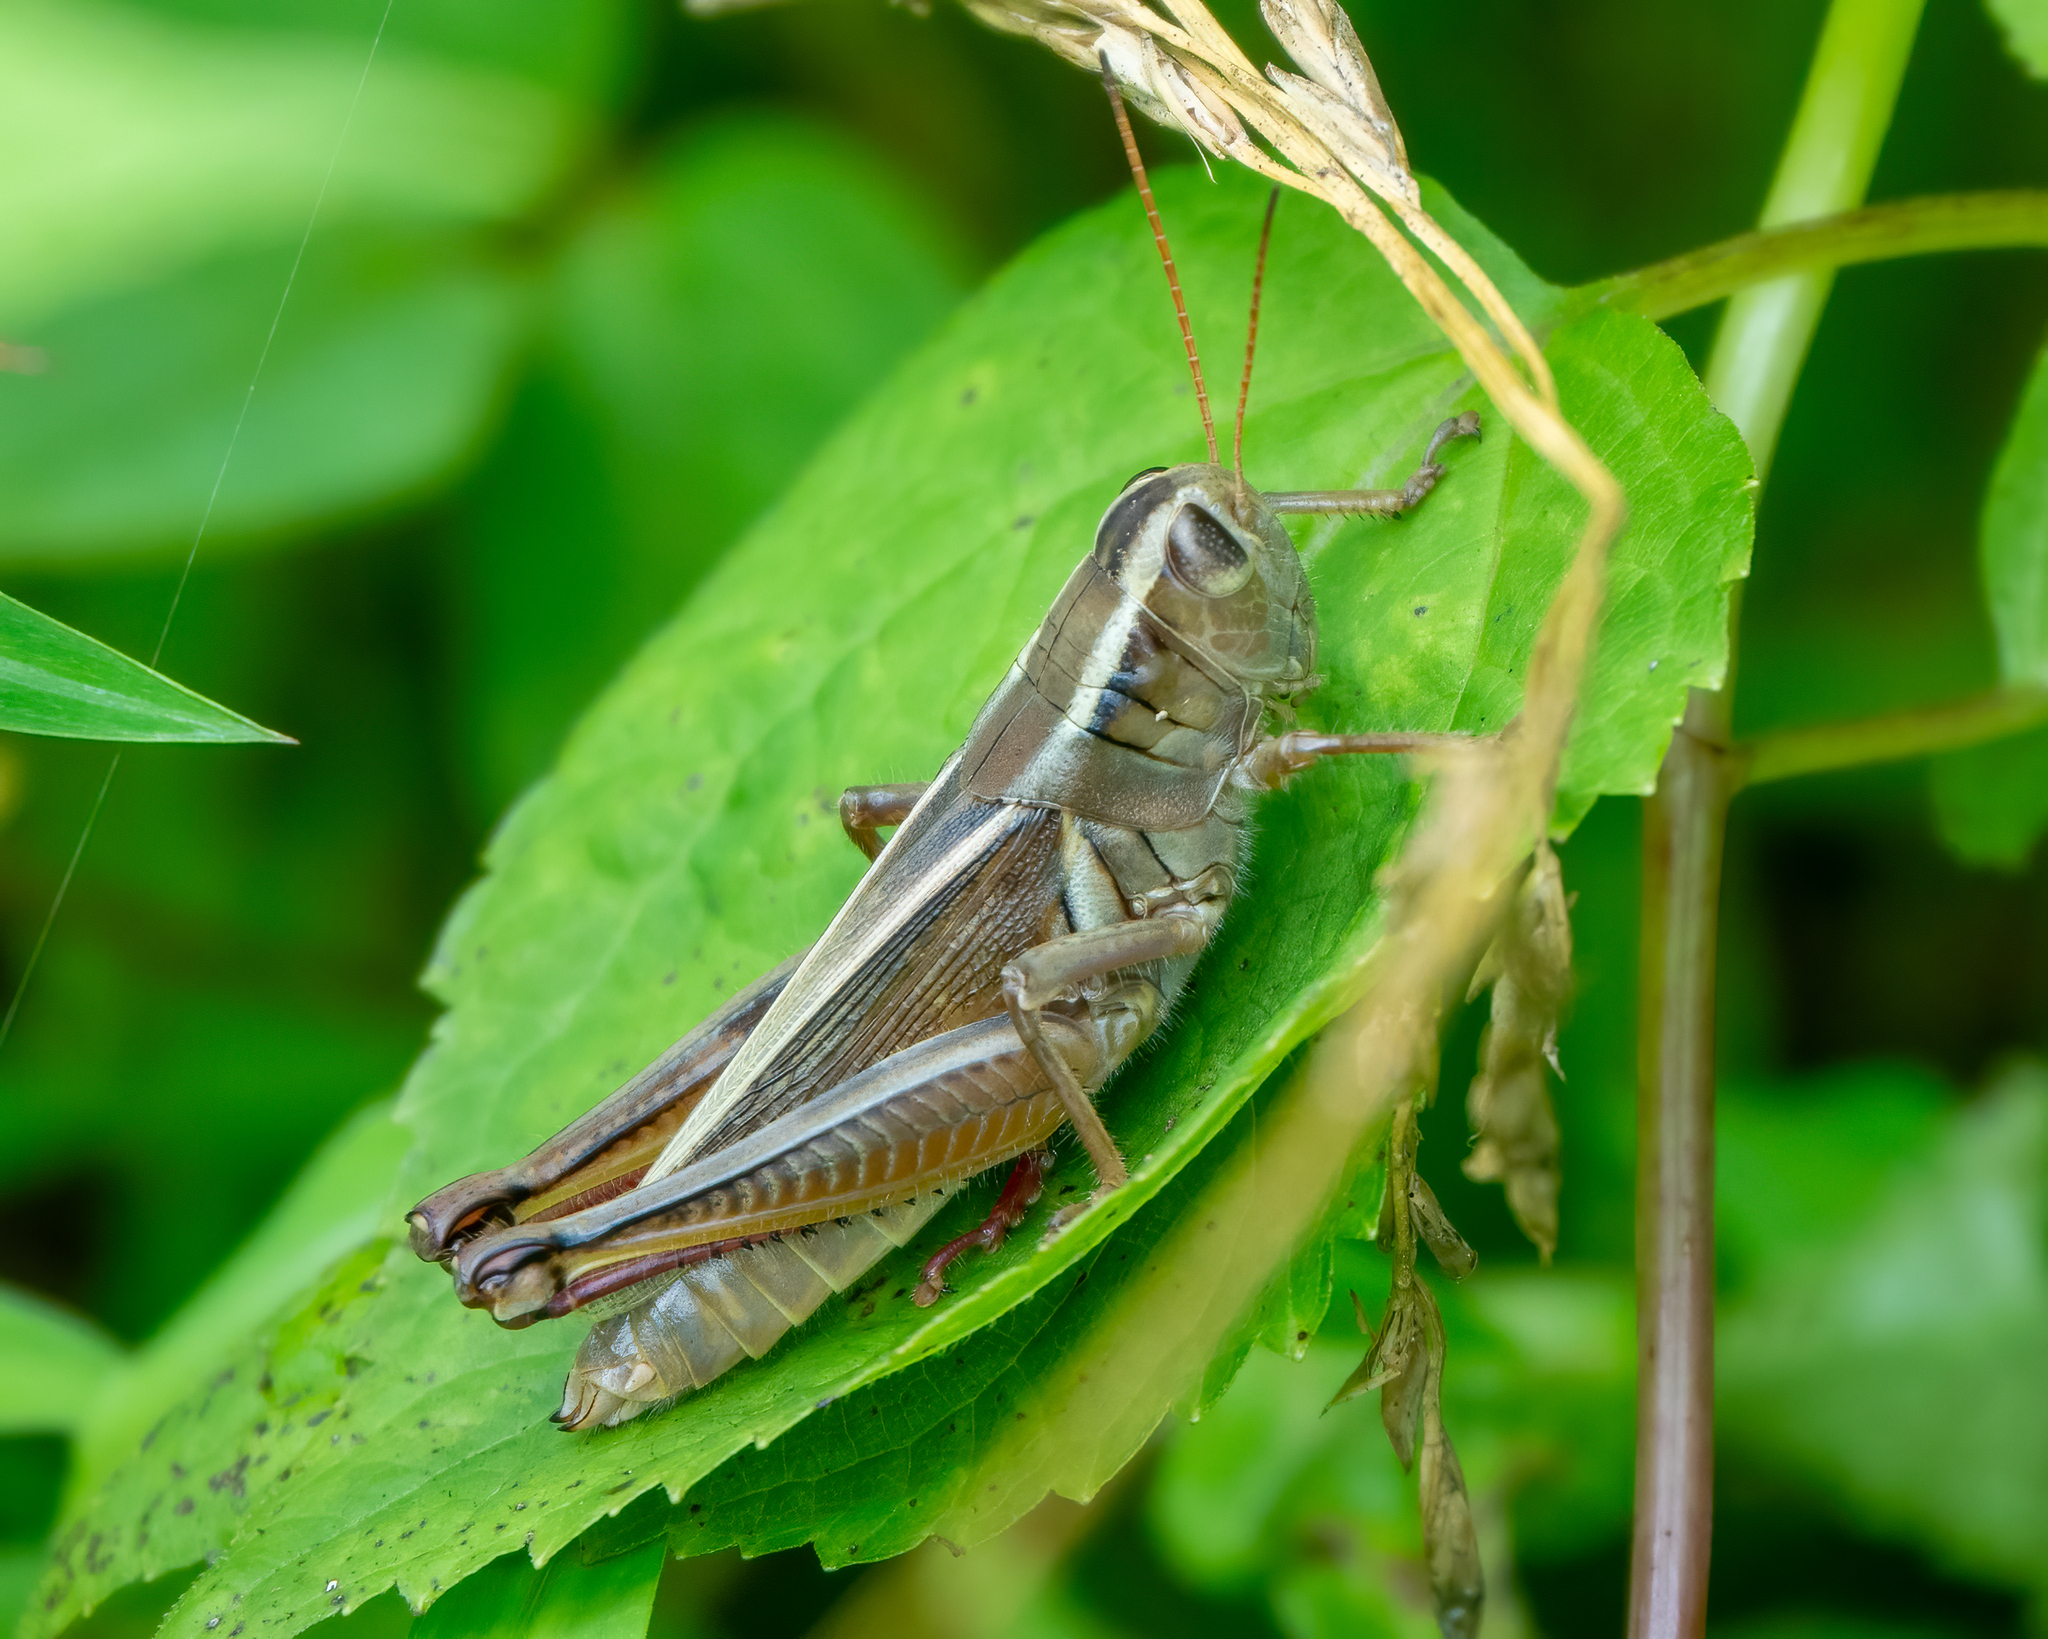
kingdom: Animalia
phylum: Arthropoda
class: Insecta
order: Orthoptera
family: Acrididae
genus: Melanoplus
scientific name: Melanoplus bivittatus
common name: Two-striped grasshopper
